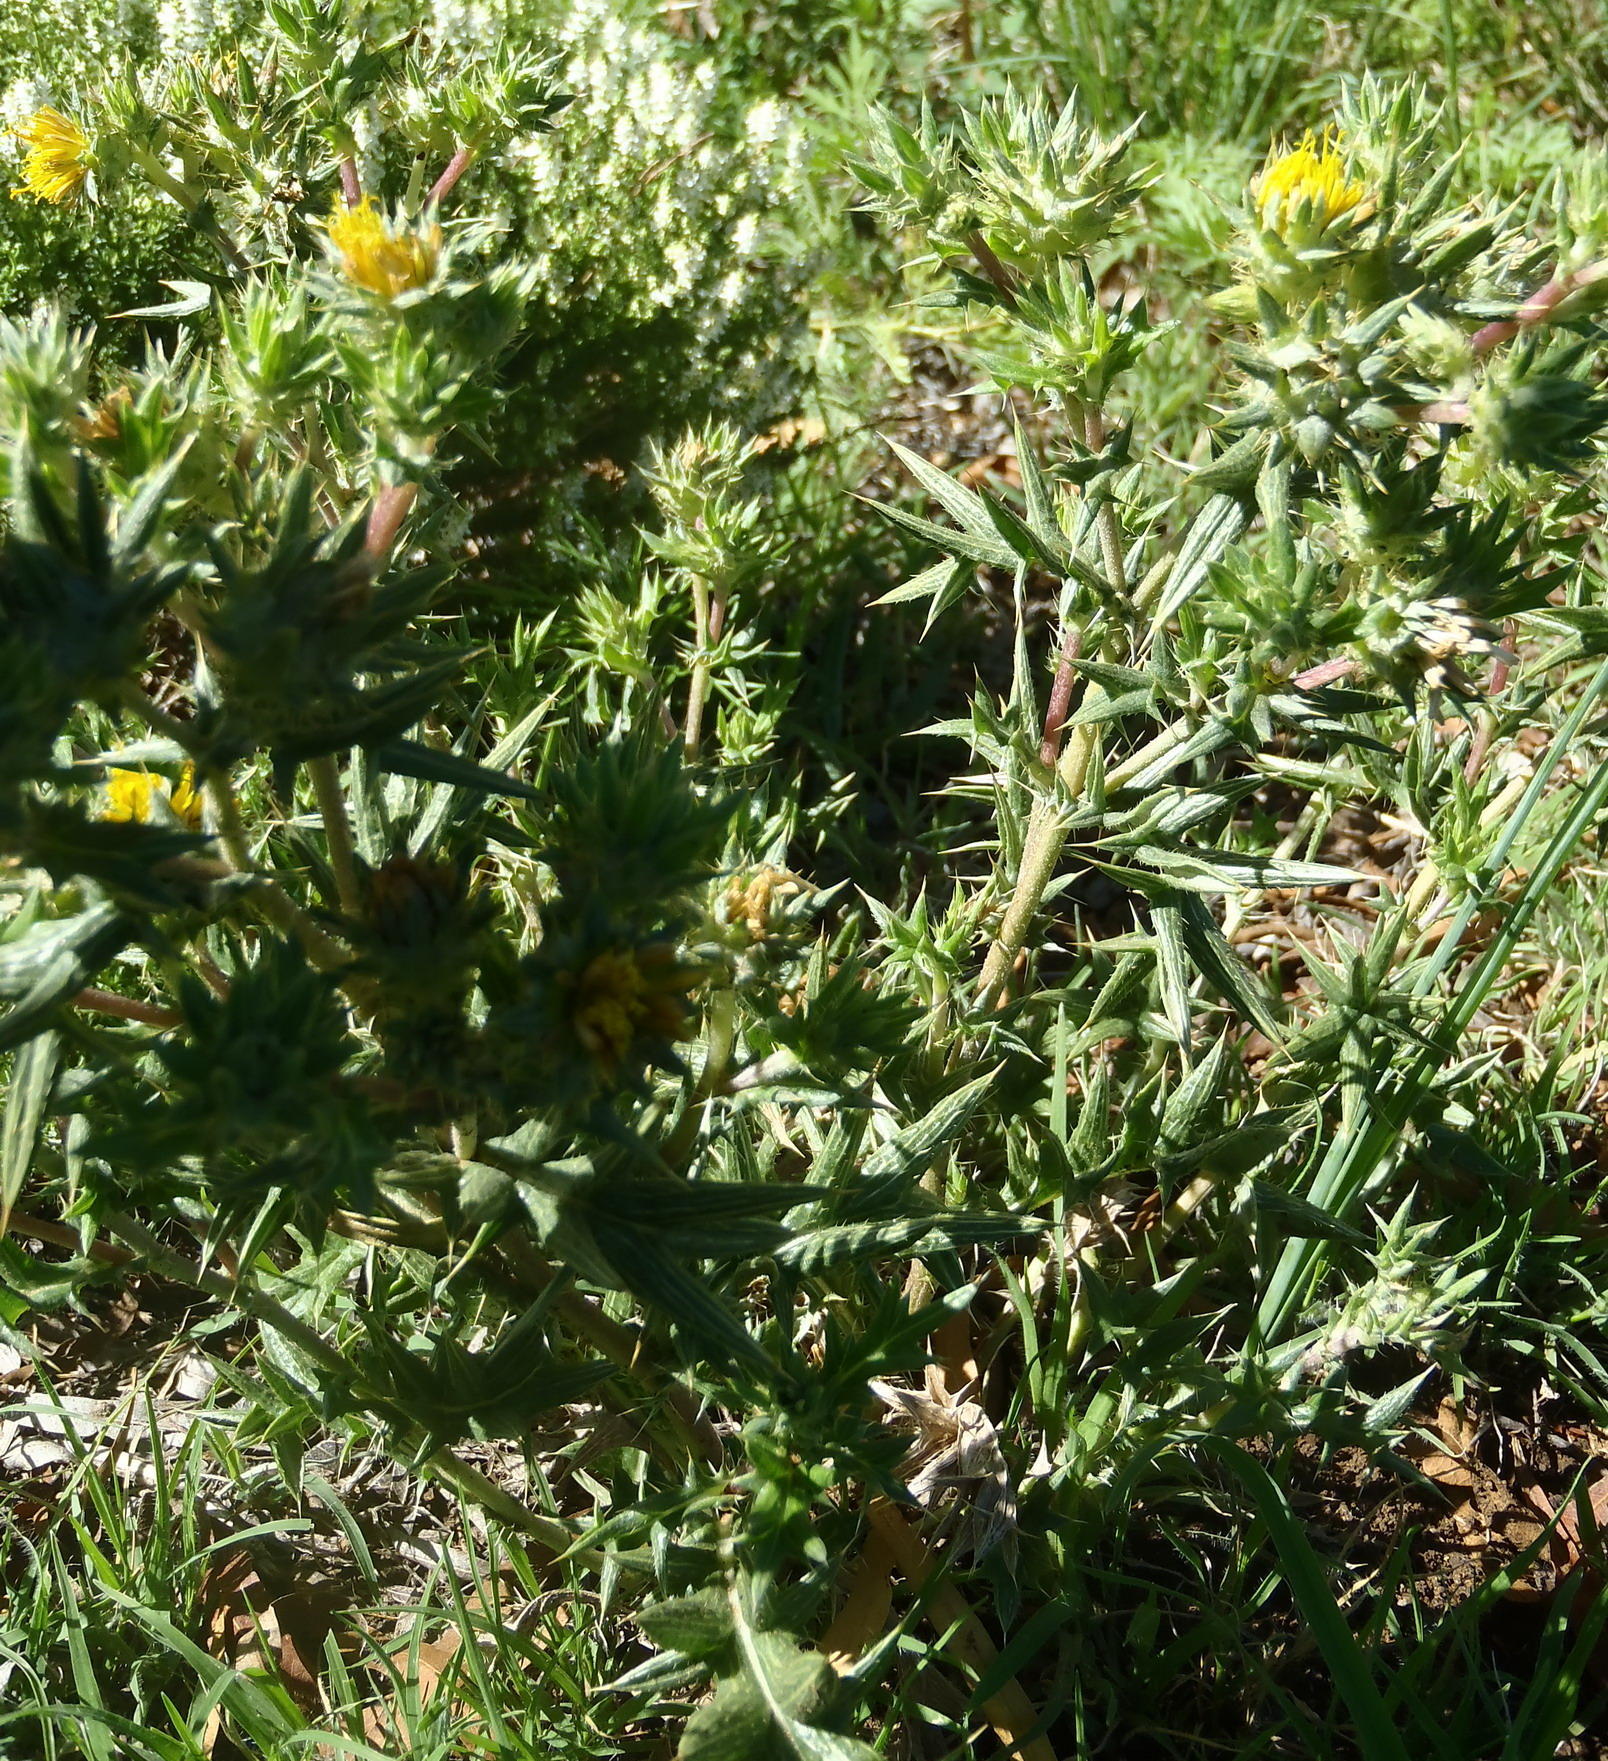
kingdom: Plantae
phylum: Tracheophyta
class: Magnoliopsida
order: Asterales
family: Asteraceae
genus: Berkheya
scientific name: Berkheya pinnatifida
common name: Lobed african thistle
